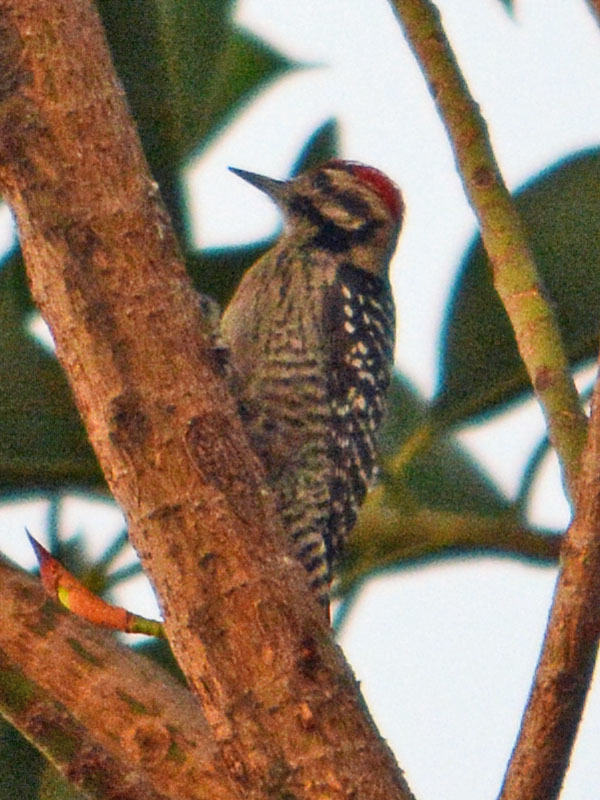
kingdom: Animalia
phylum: Chordata
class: Aves
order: Piciformes
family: Picidae
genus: Dryobates
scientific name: Dryobates scalaris
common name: Ladder-backed woodpecker
